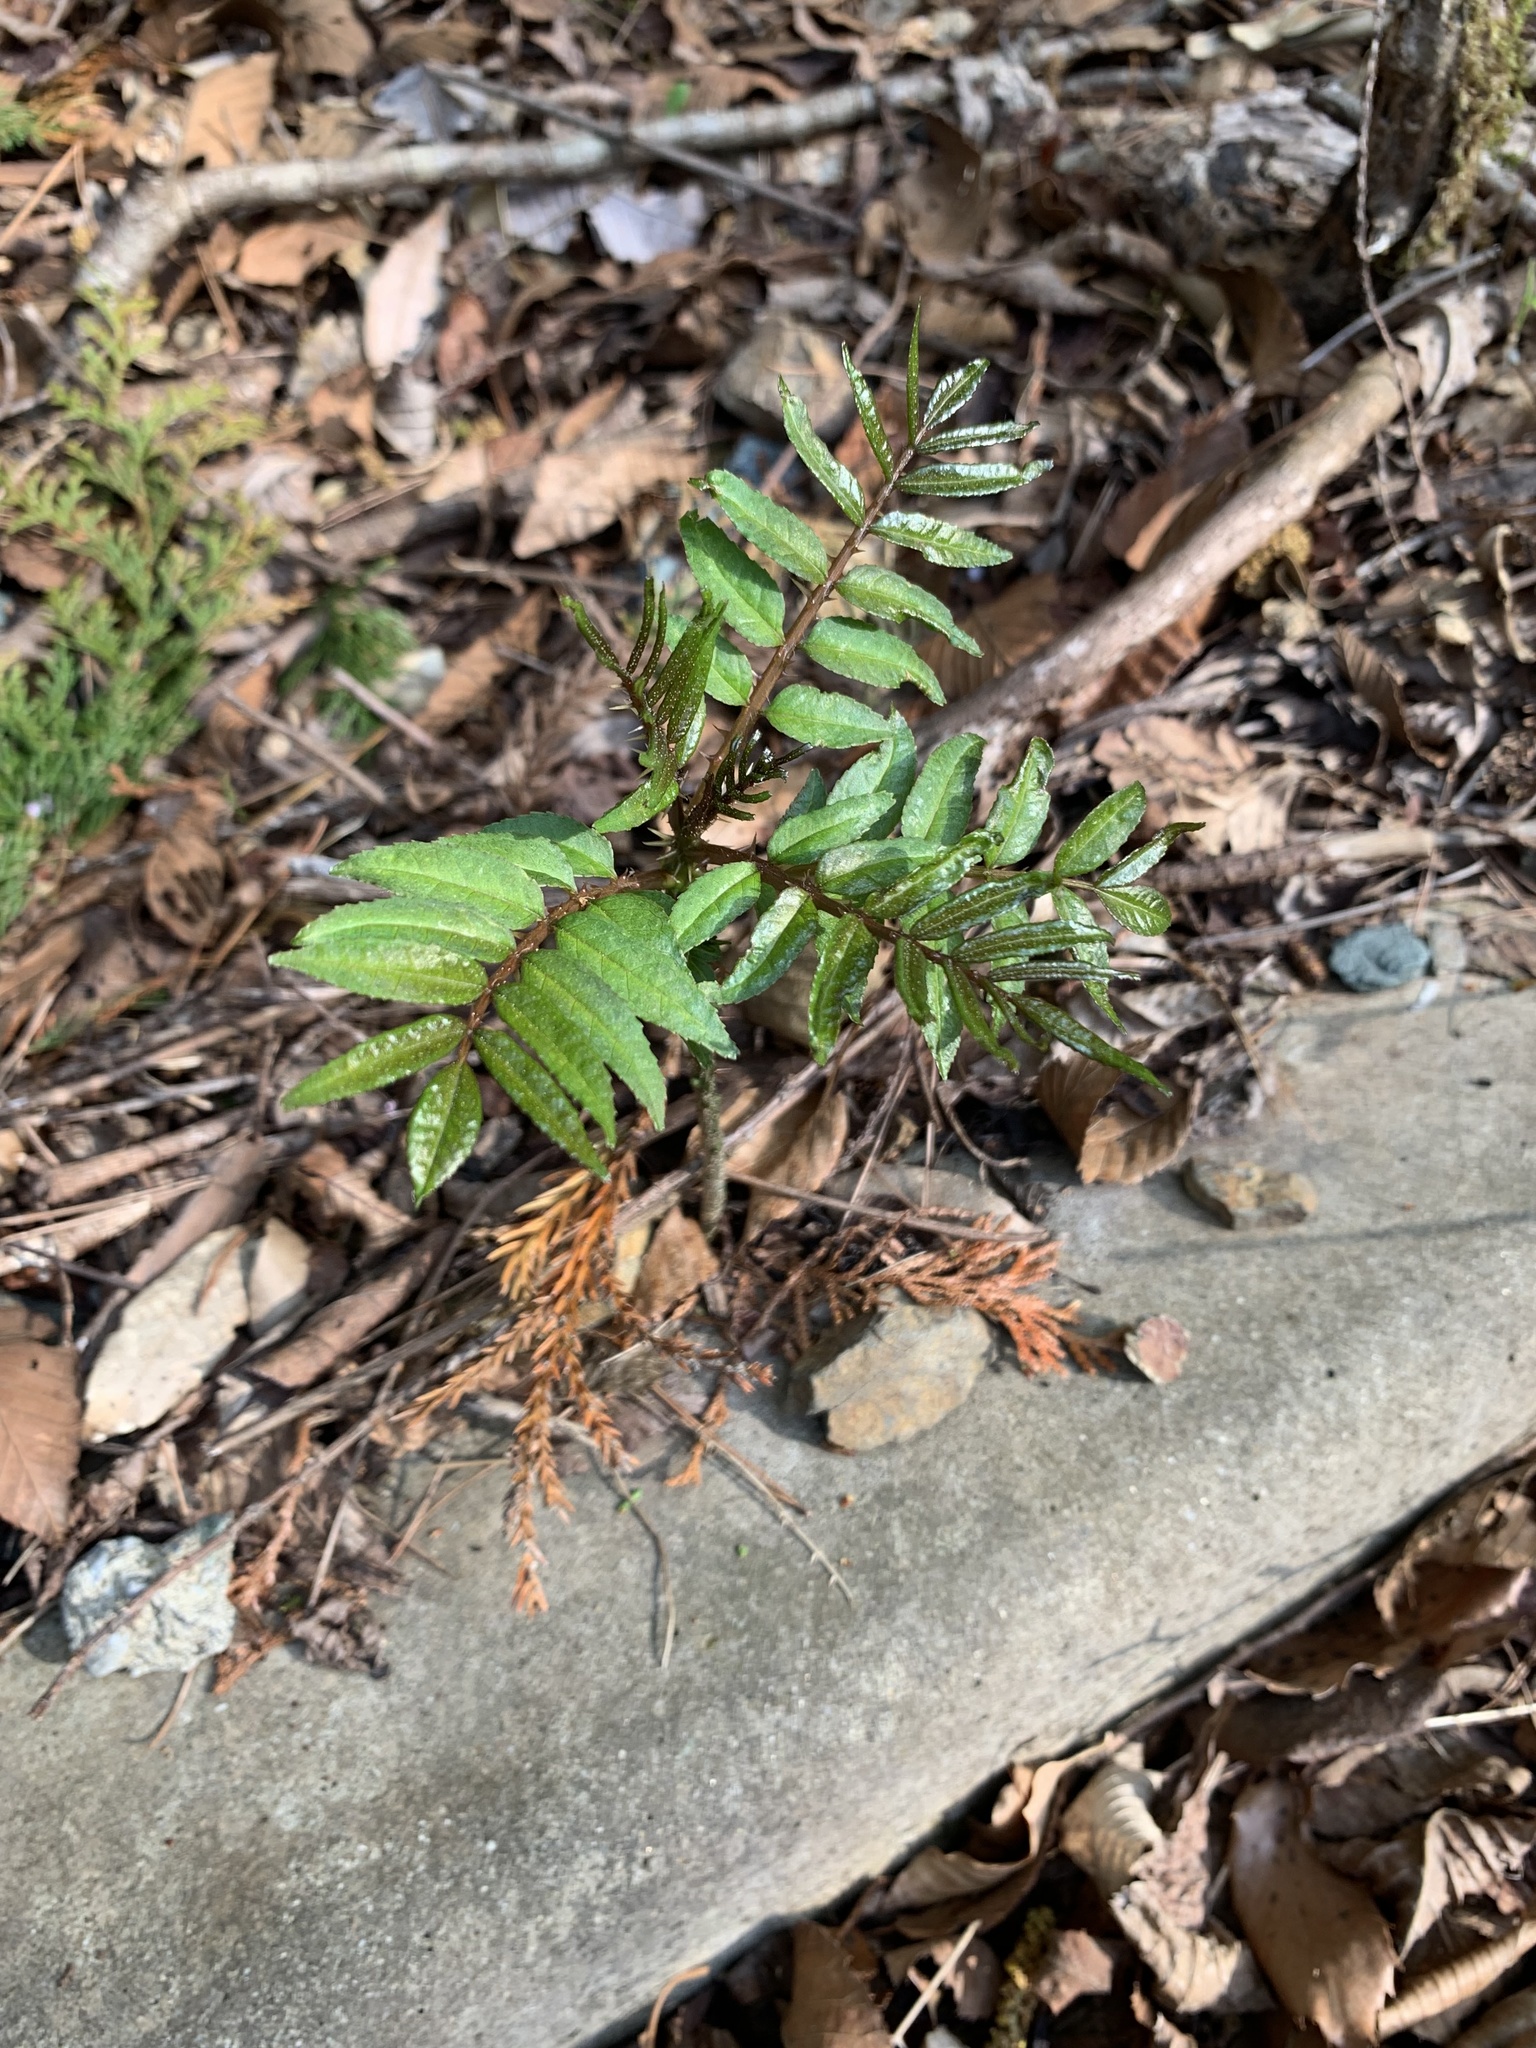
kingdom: Plantae
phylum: Tracheophyta
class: Magnoliopsida
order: Sapindales
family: Rutaceae
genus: Zanthoxylum
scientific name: Zanthoxylum ailanthoides
